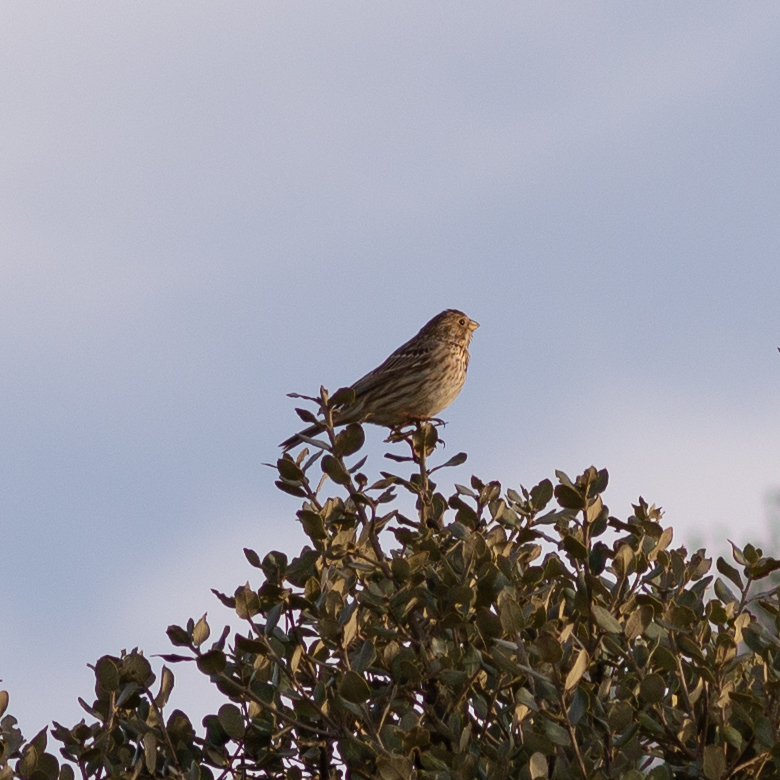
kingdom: Animalia
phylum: Chordata
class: Aves
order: Passeriformes
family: Emberizidae
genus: Emberiza
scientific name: Emberiza calandra
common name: Corn bunting
